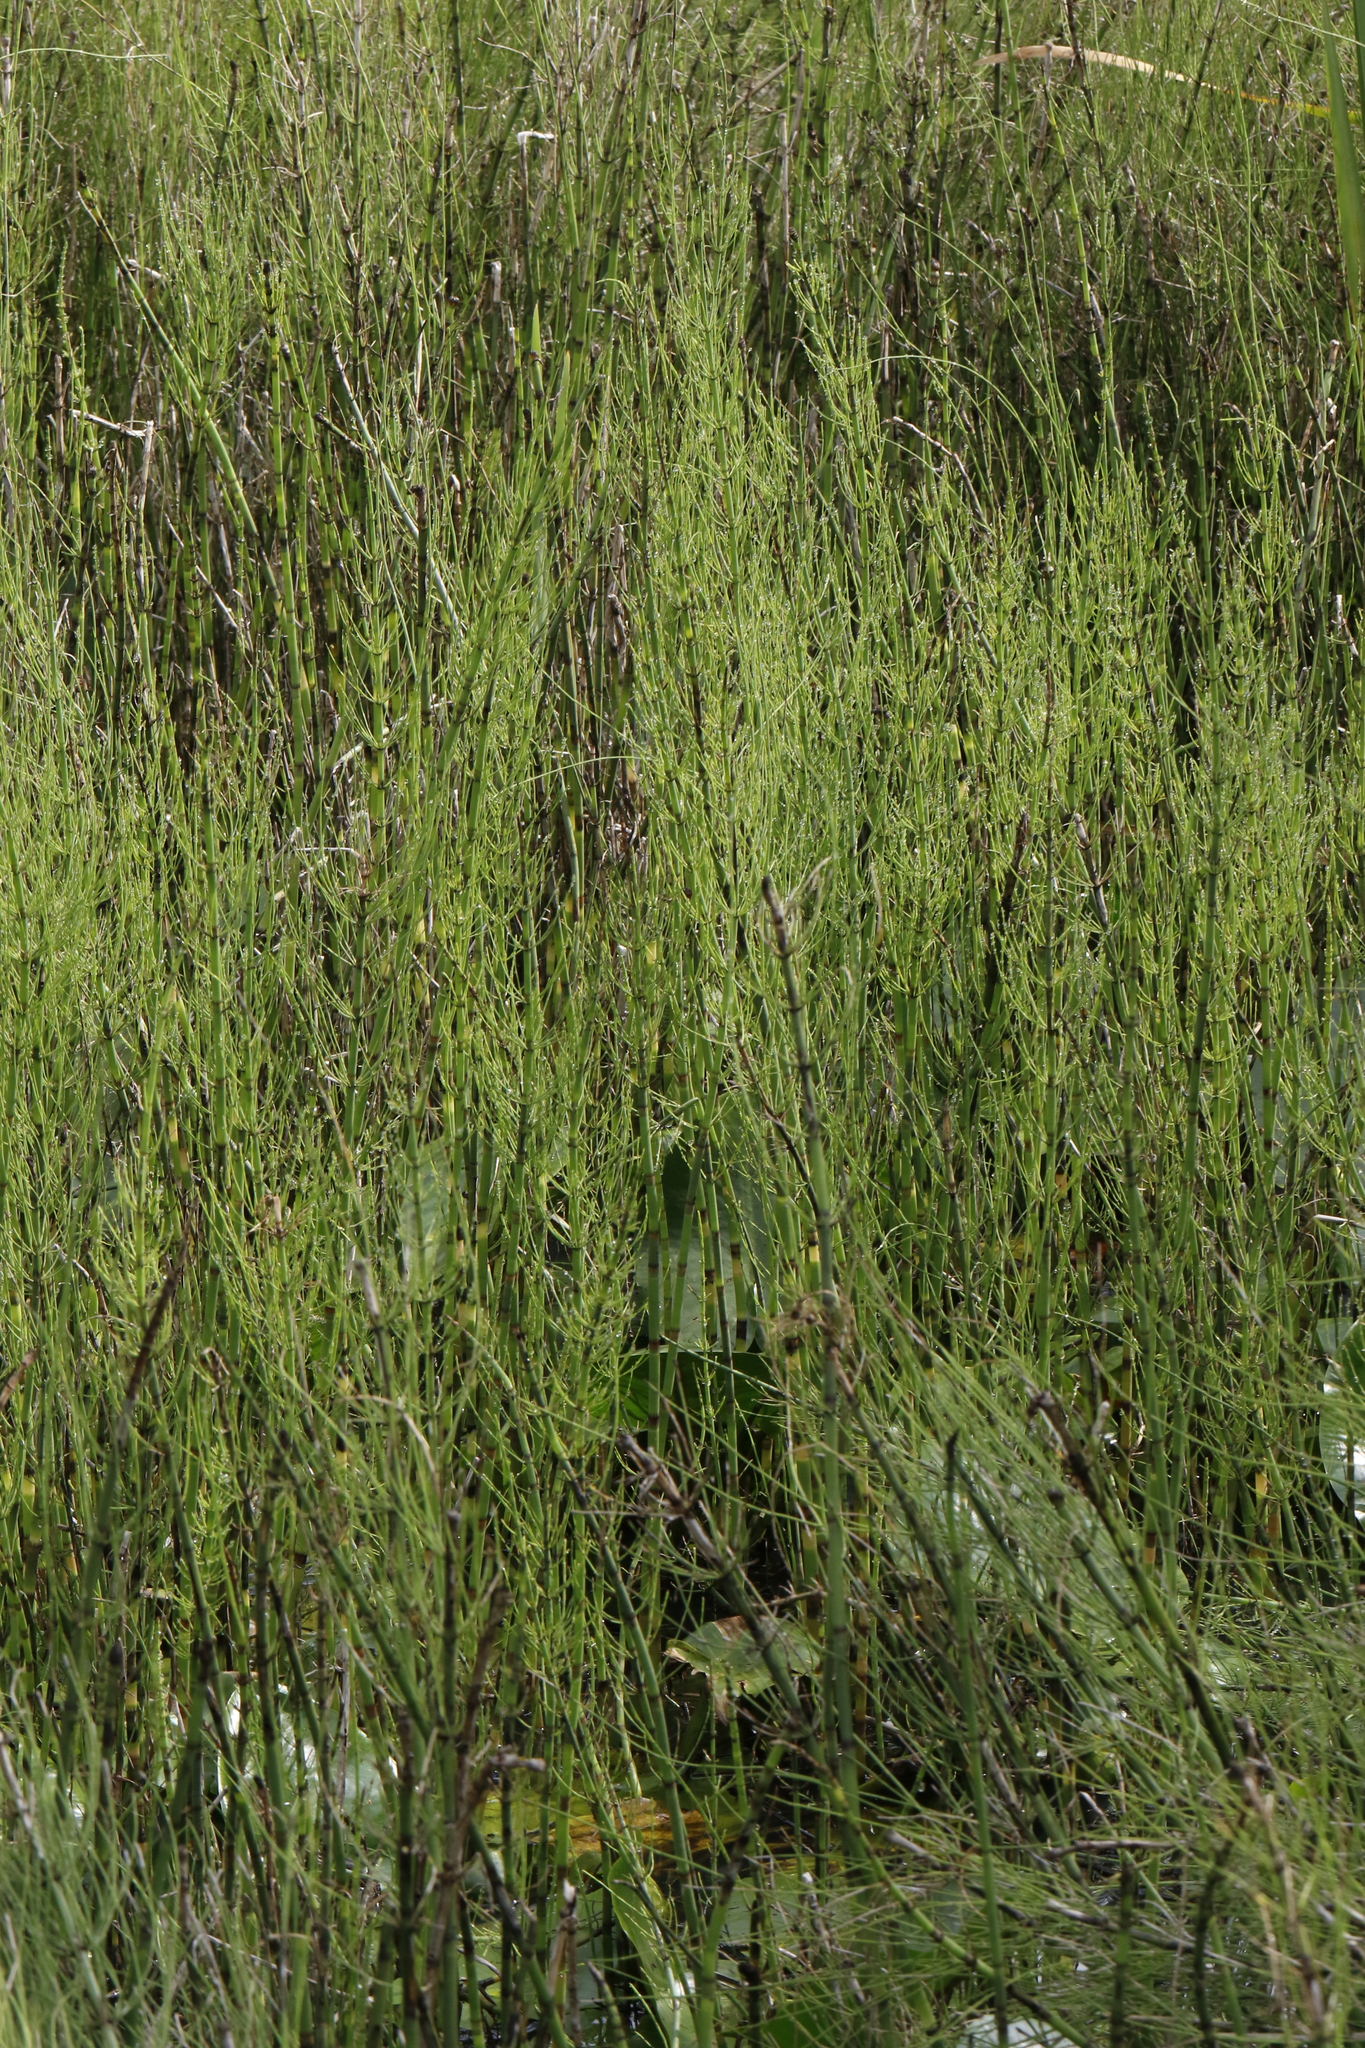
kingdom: Plantae
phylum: Tracheophyta
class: Polypodiopsida
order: Equisetales
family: Equisetaceae
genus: Equisetum
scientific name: Equisetum fluviatile
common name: Water horsetail
